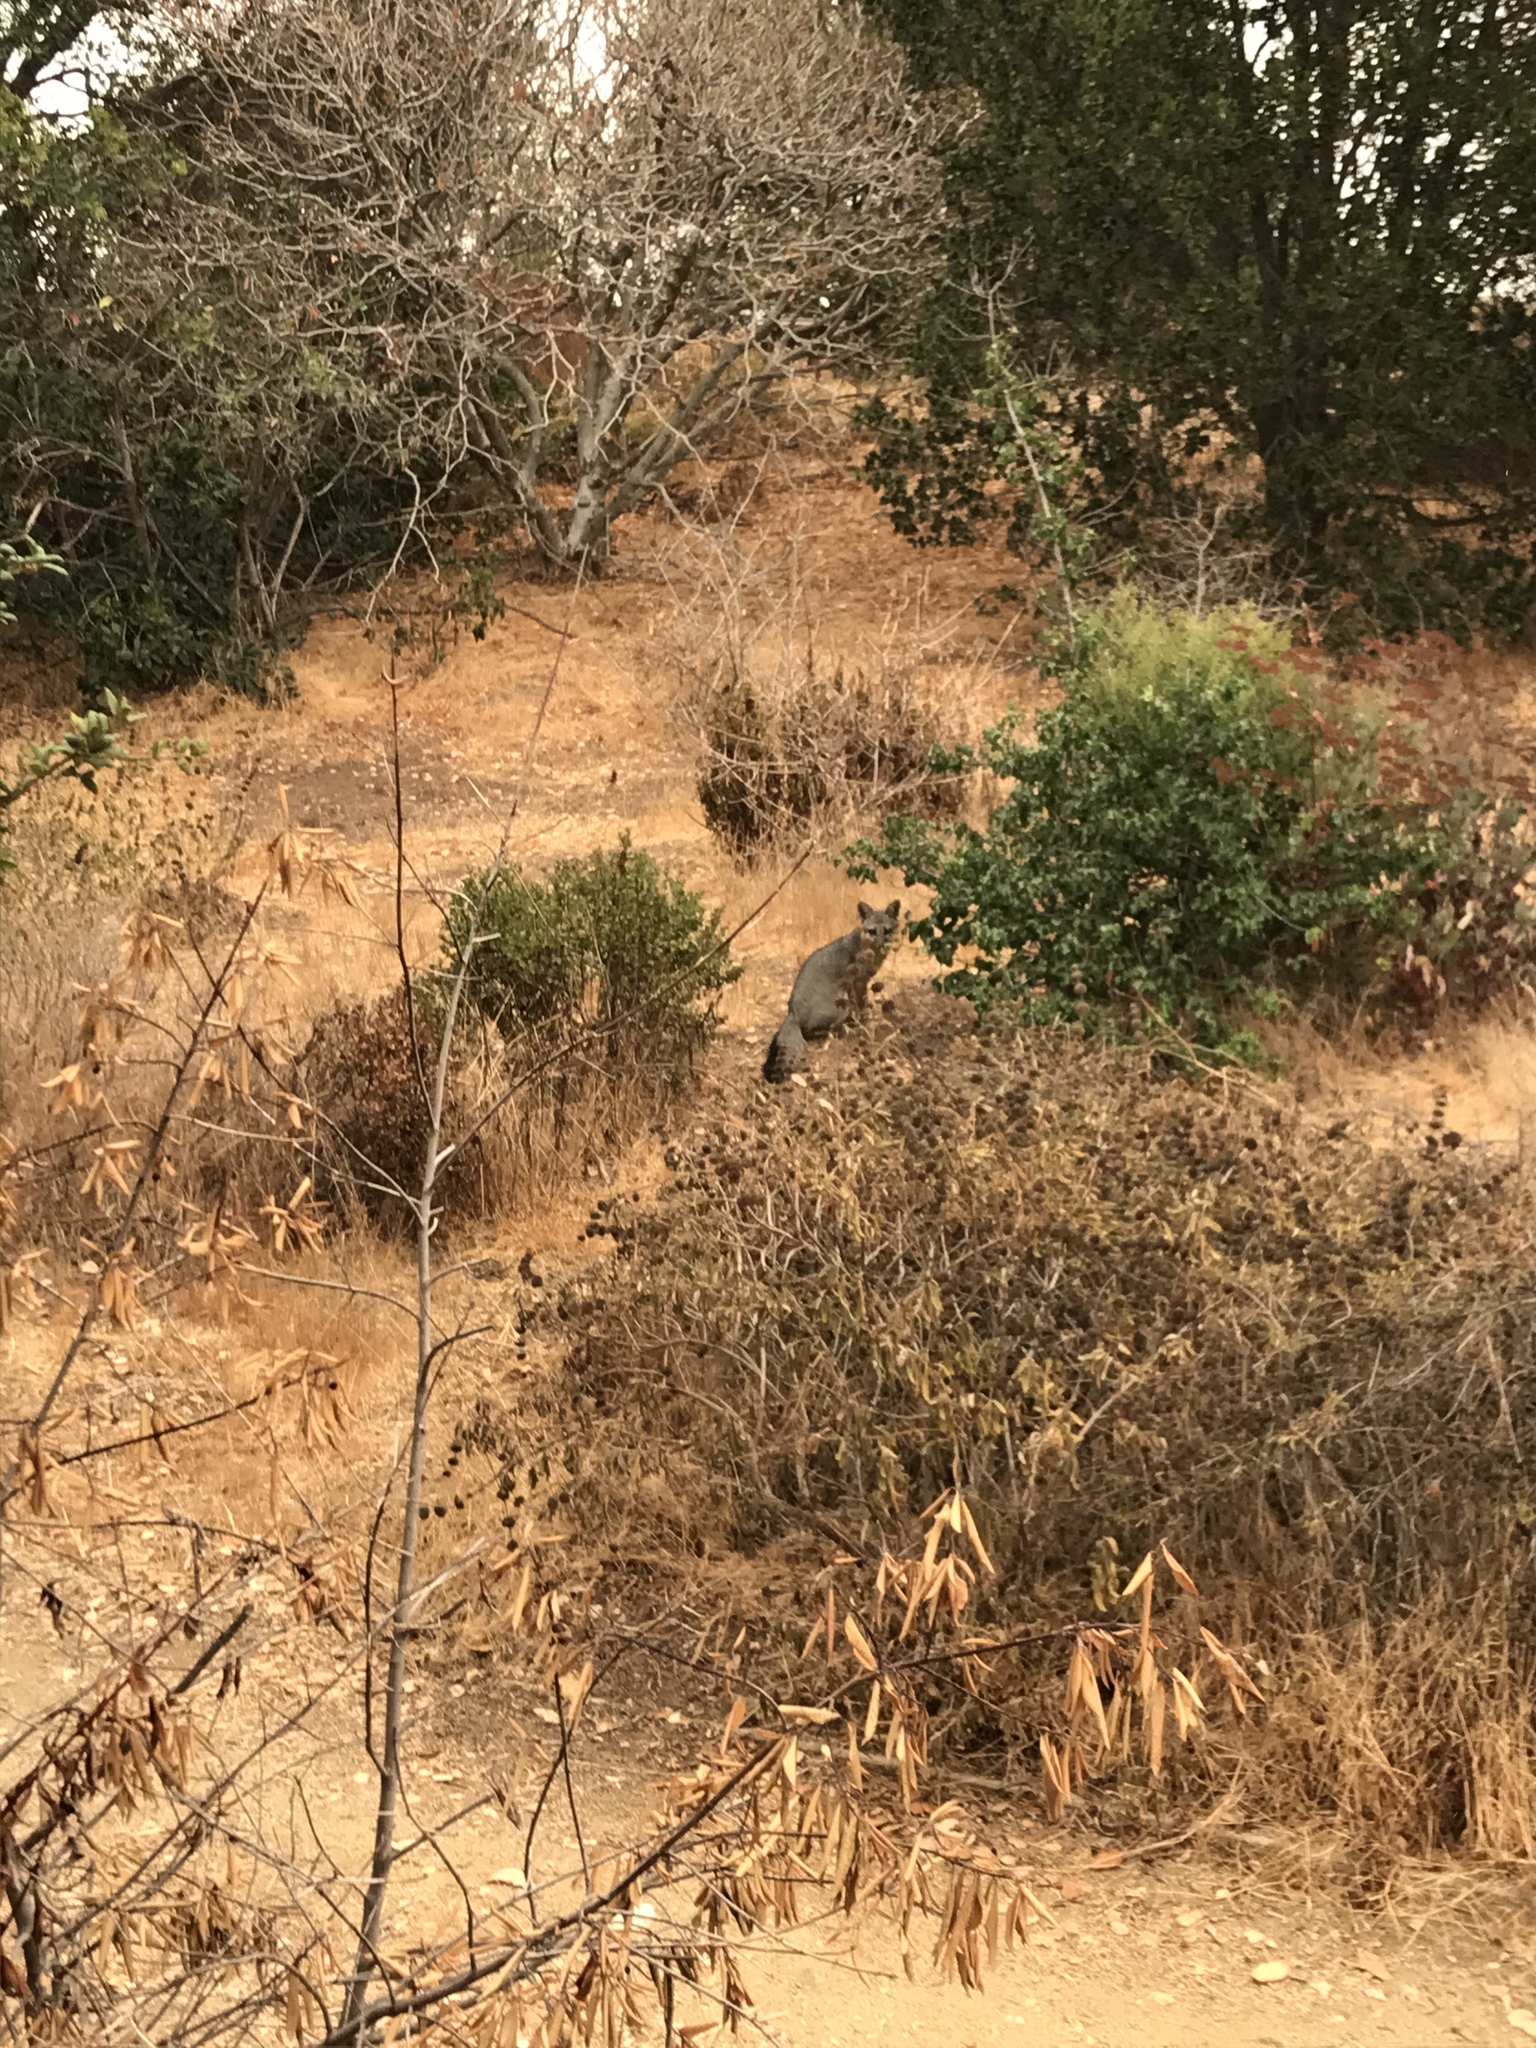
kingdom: Animalia
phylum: Chordata
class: Mammalia
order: Carnivora
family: Canidae
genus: Urocyon
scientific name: Urocyon cinereoargenteus
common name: Gray fox
